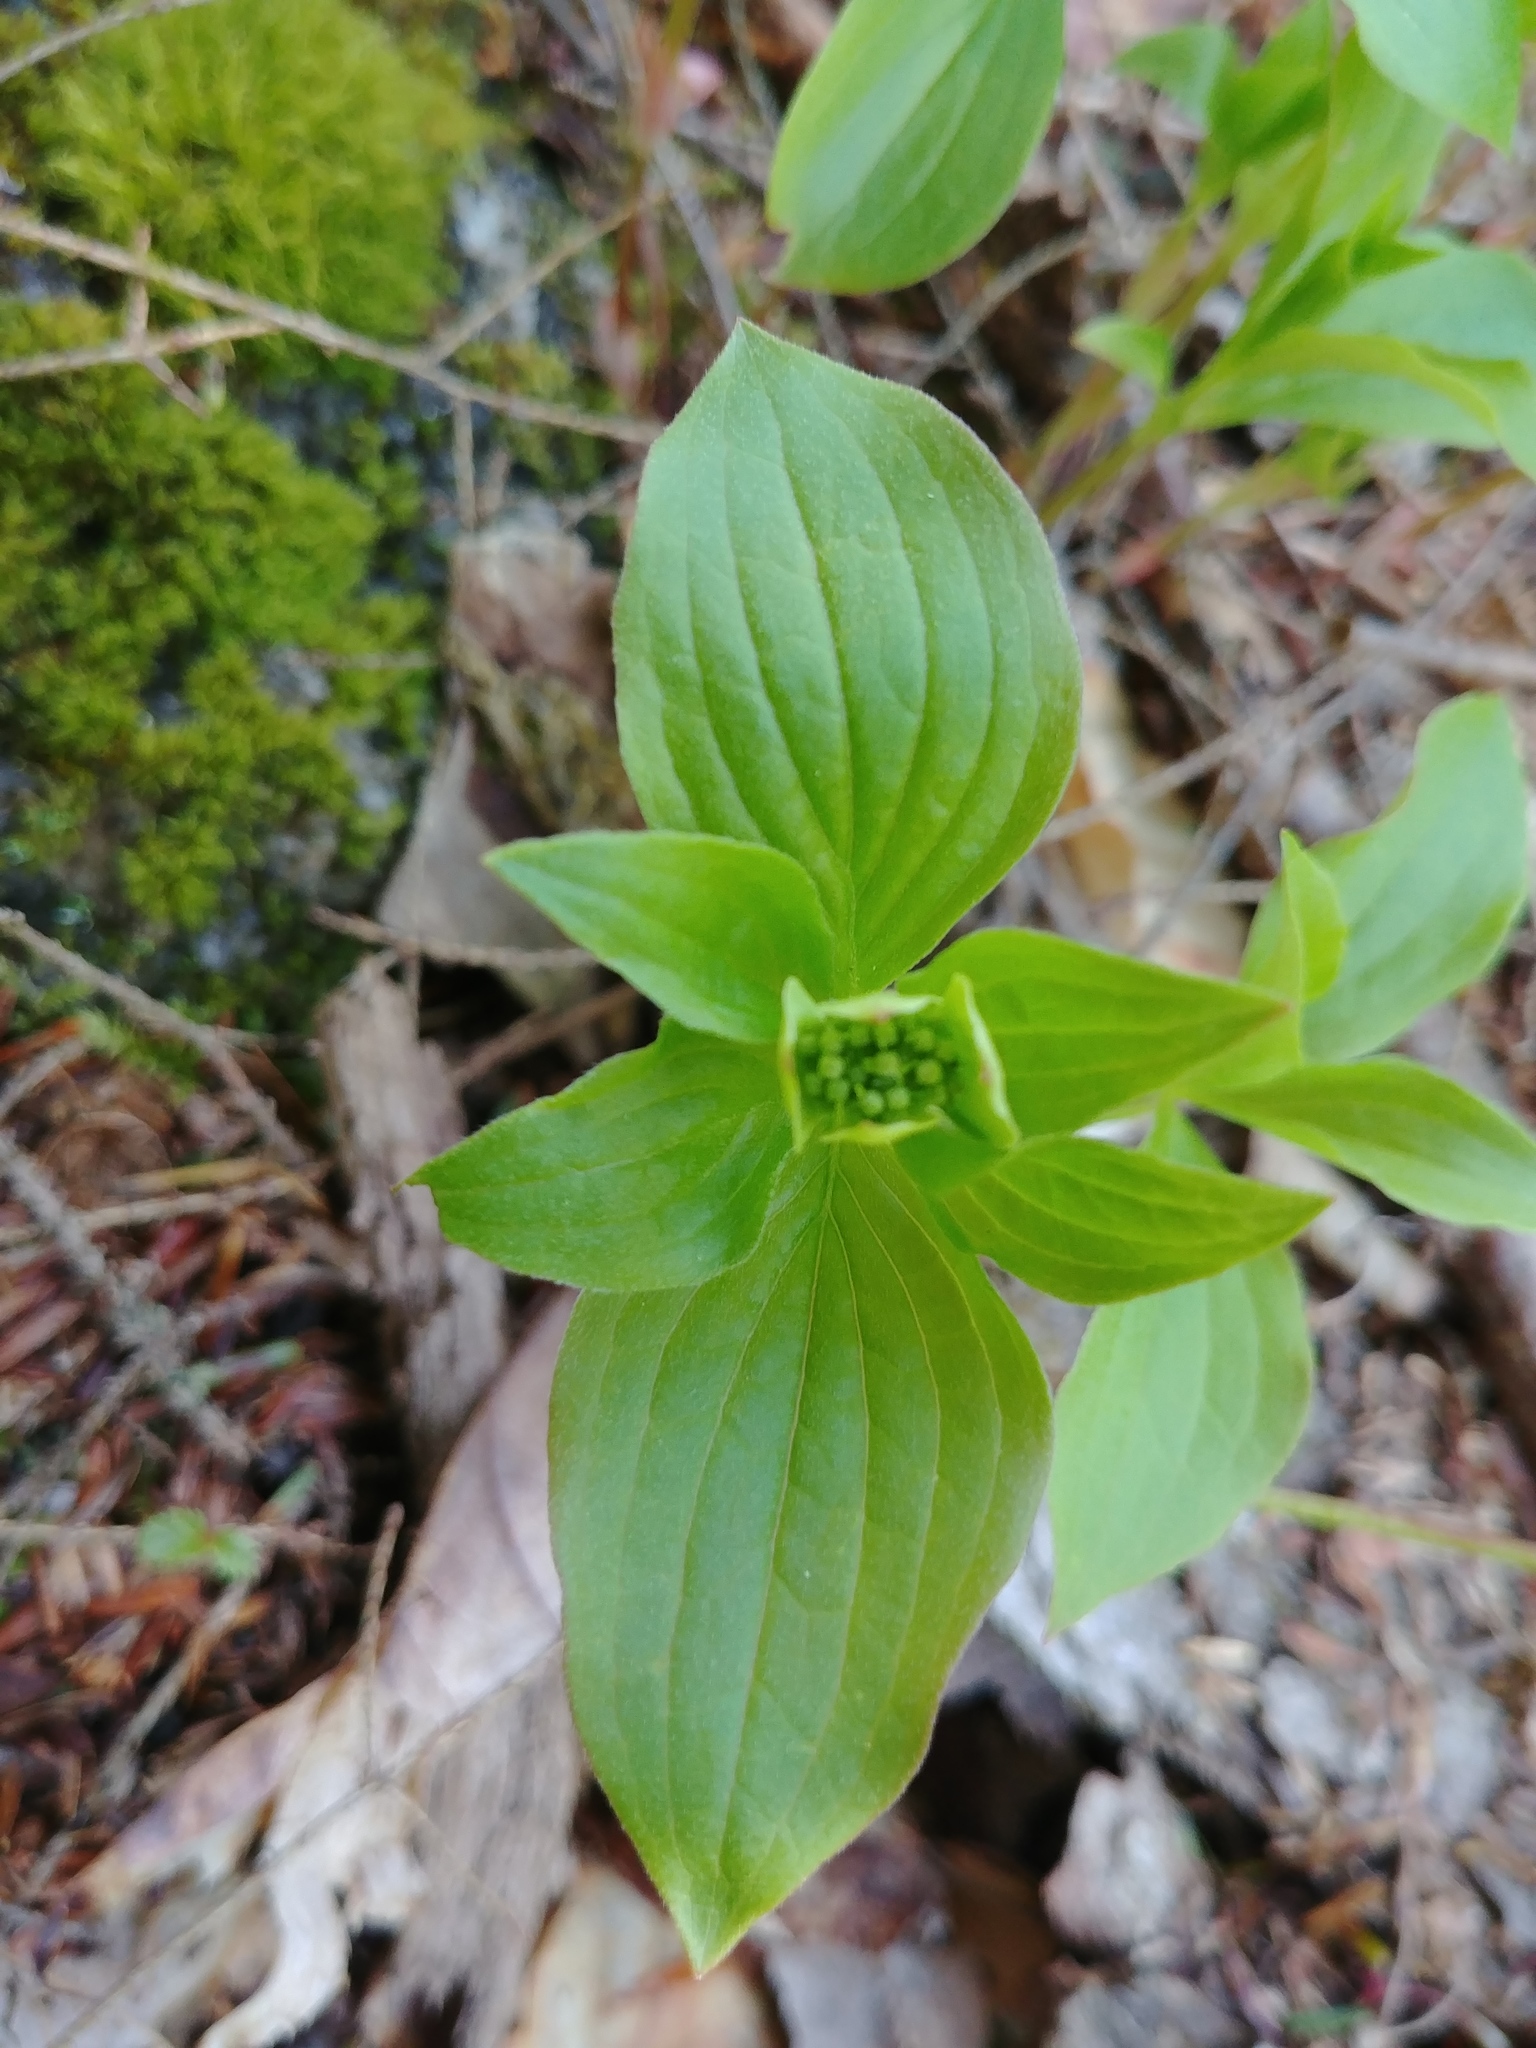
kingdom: Plantae
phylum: Tracheophyta
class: Magnoliopsida
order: Cornales
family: Cornaceae
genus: Cornus
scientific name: Cornus canadensis
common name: Creeping dogwood
